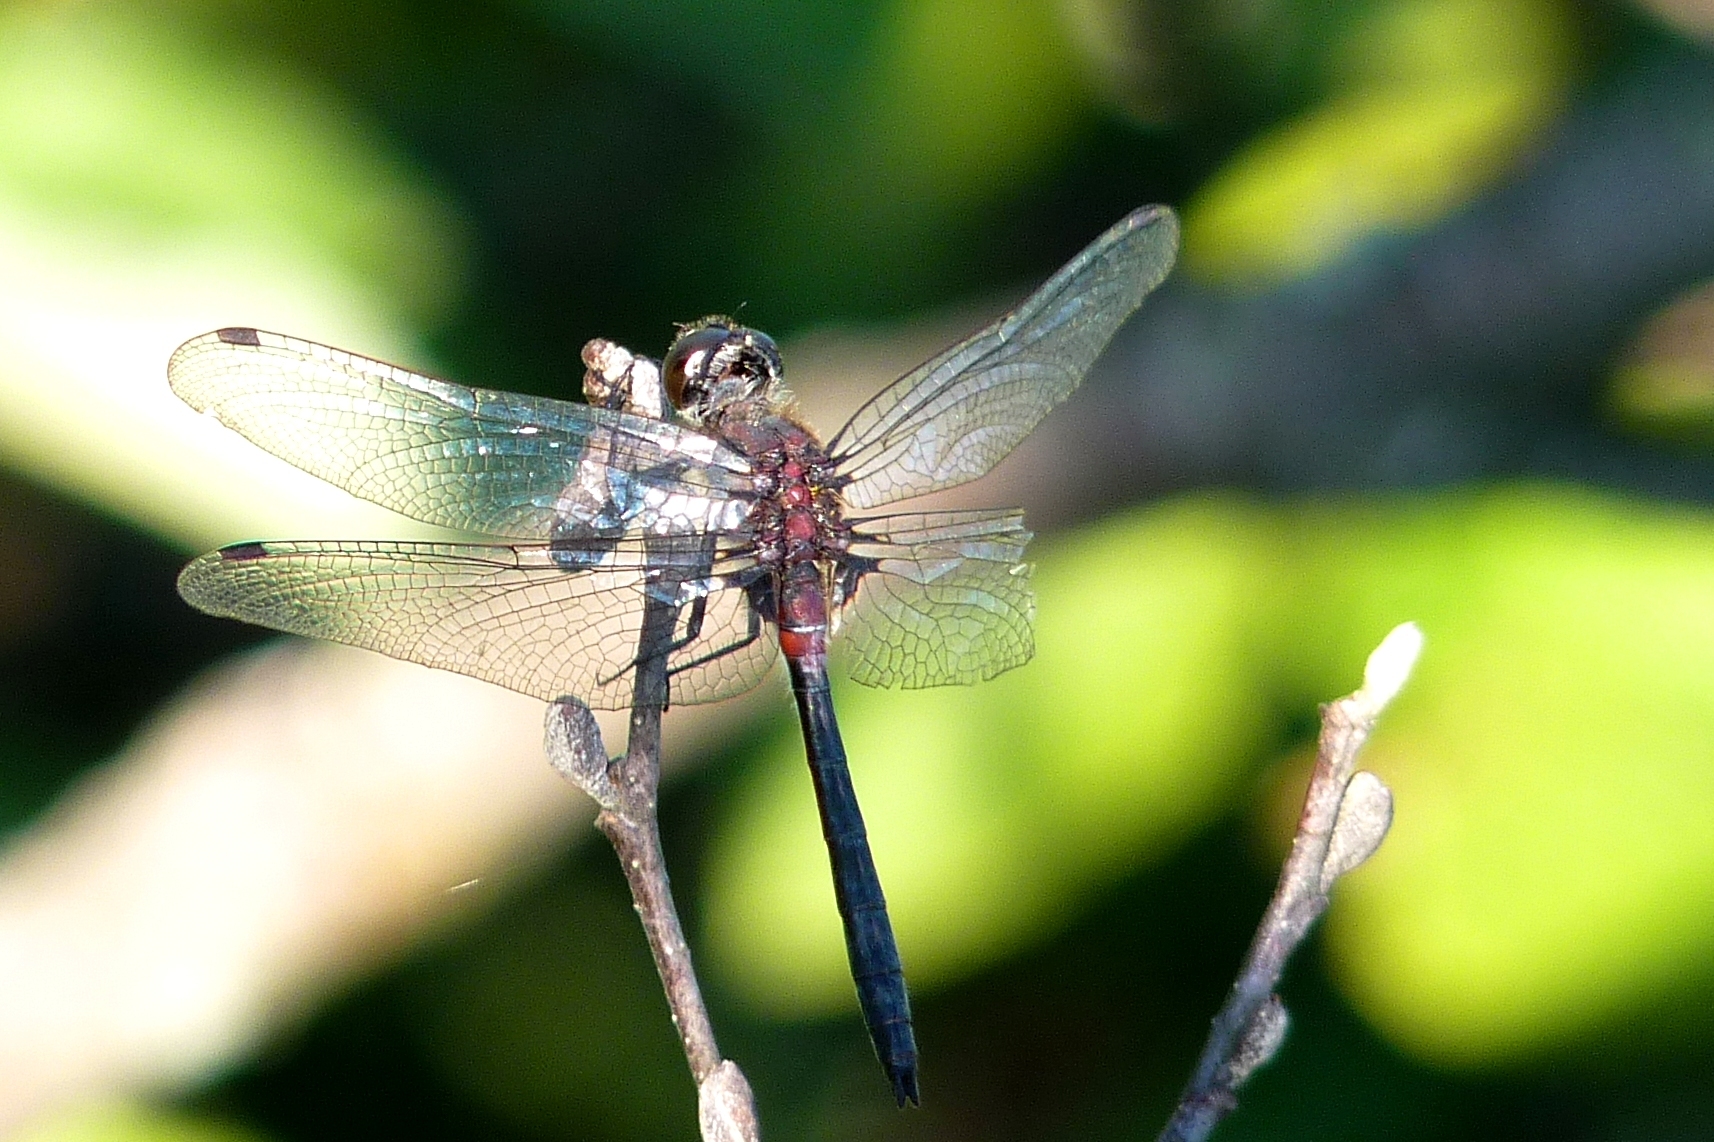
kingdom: Animalia
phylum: Arthropoda
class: Insecta
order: Odonata
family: Libellulidae
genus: Leucorrhinia
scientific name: Leucorrhinia proxima
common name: Belted whiteface
